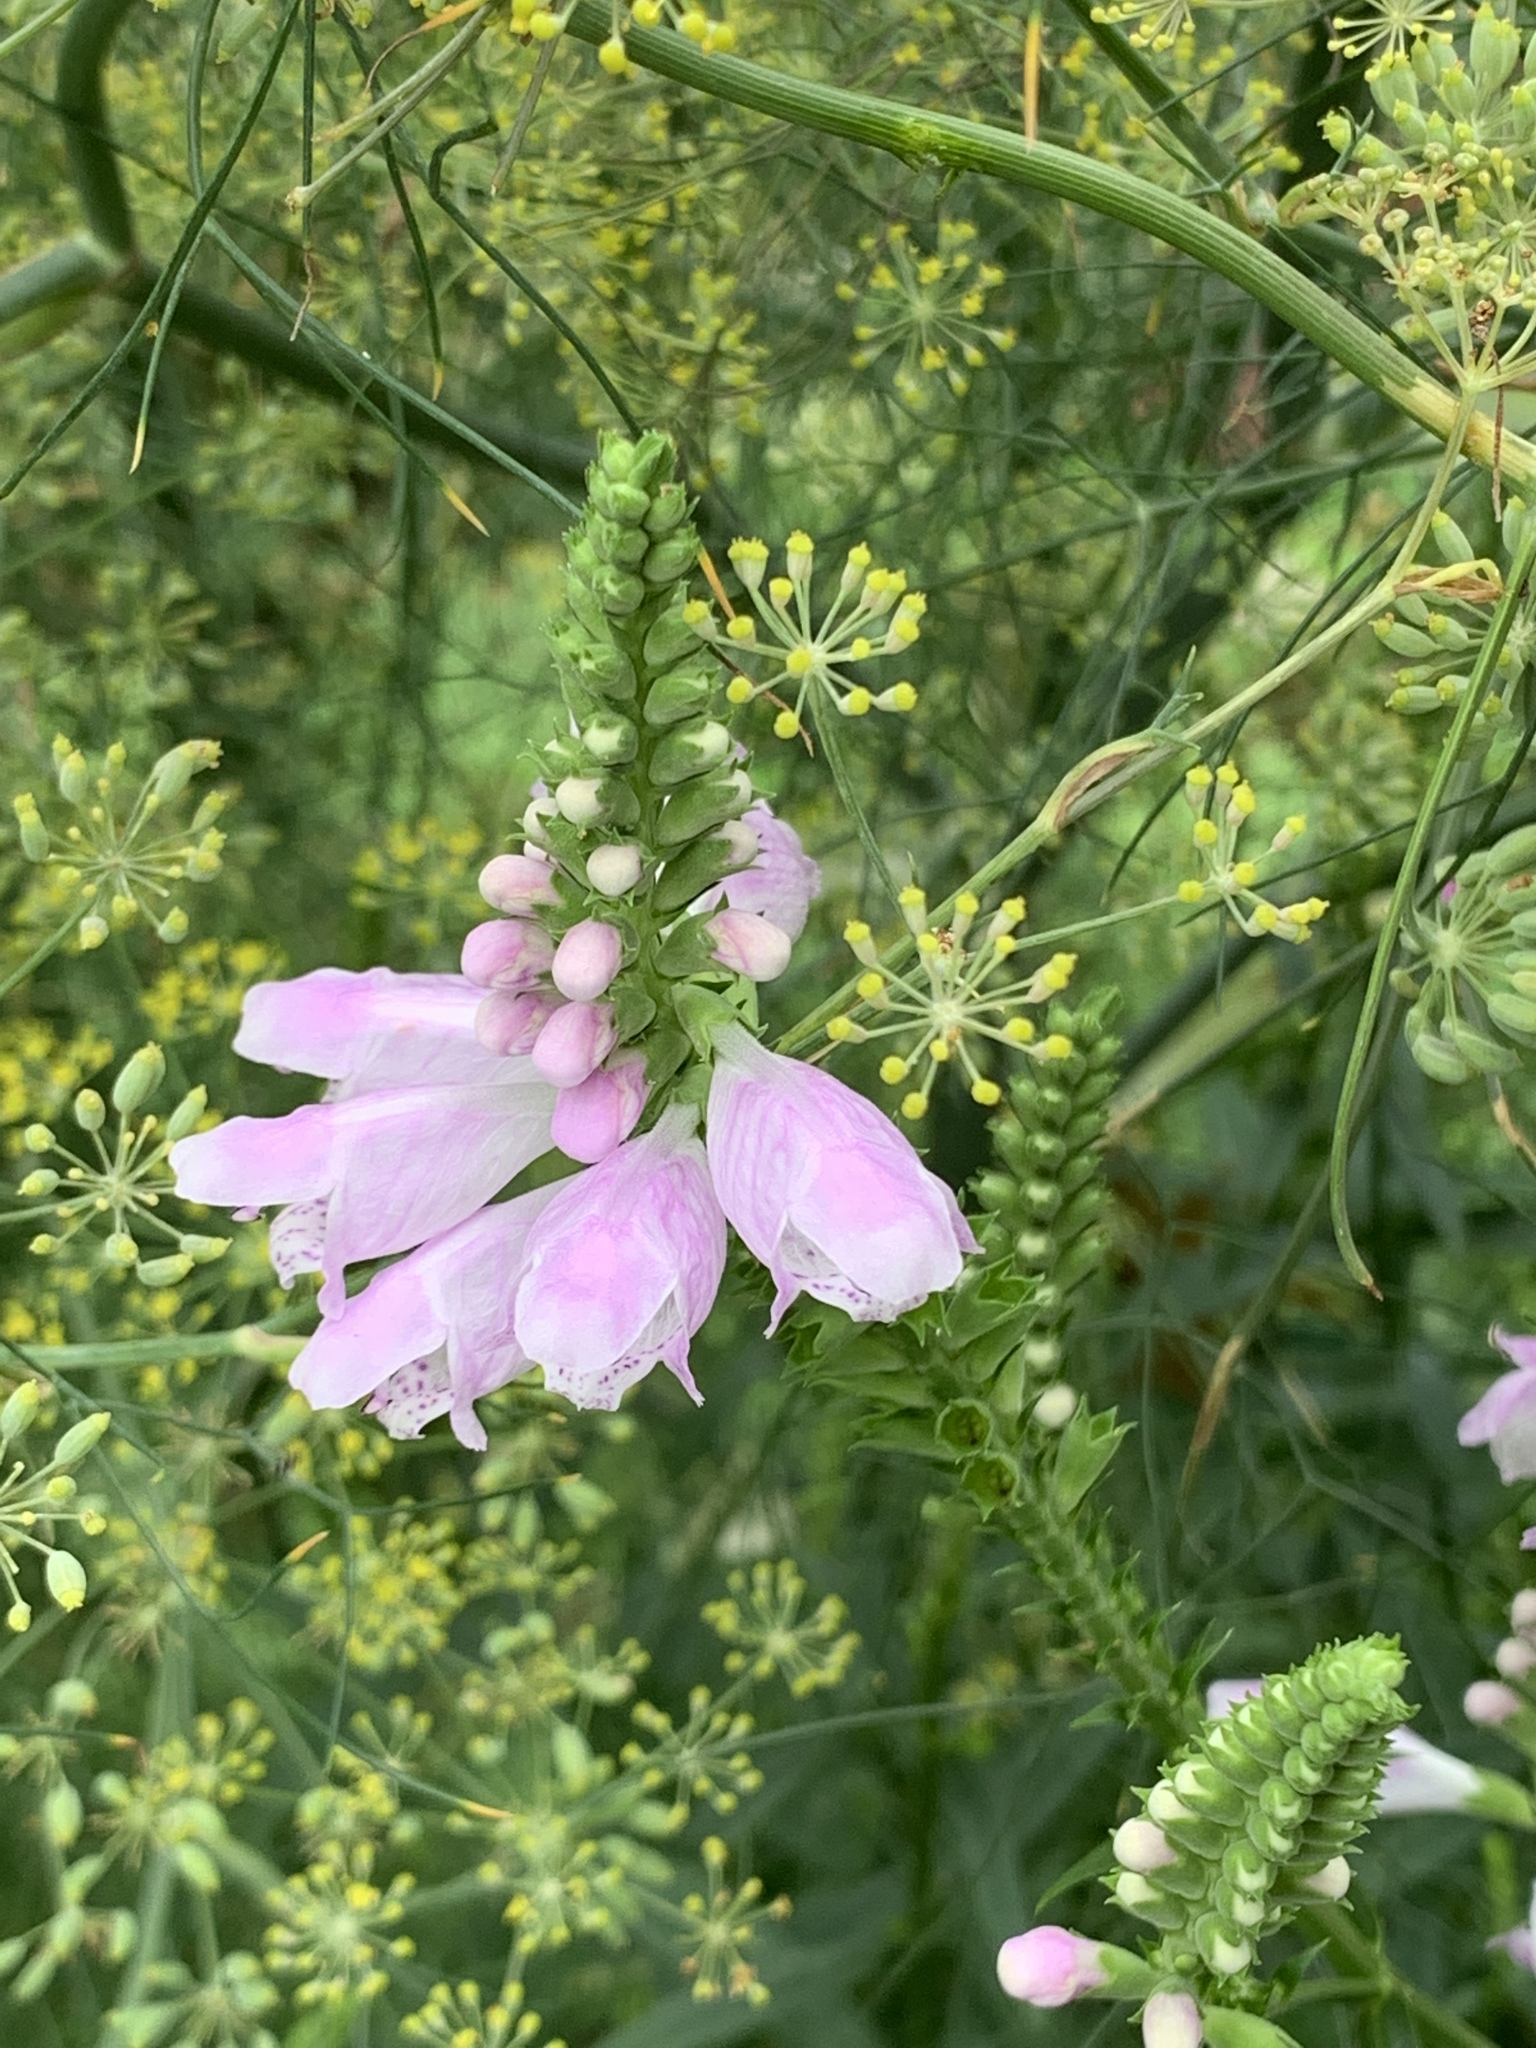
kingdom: Plantae
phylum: Tracheophyta
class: Magnoliopsida
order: Lamiales
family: Lamiaceae
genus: Physostegia
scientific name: Physostegia virginiana
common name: Obedient-plant
